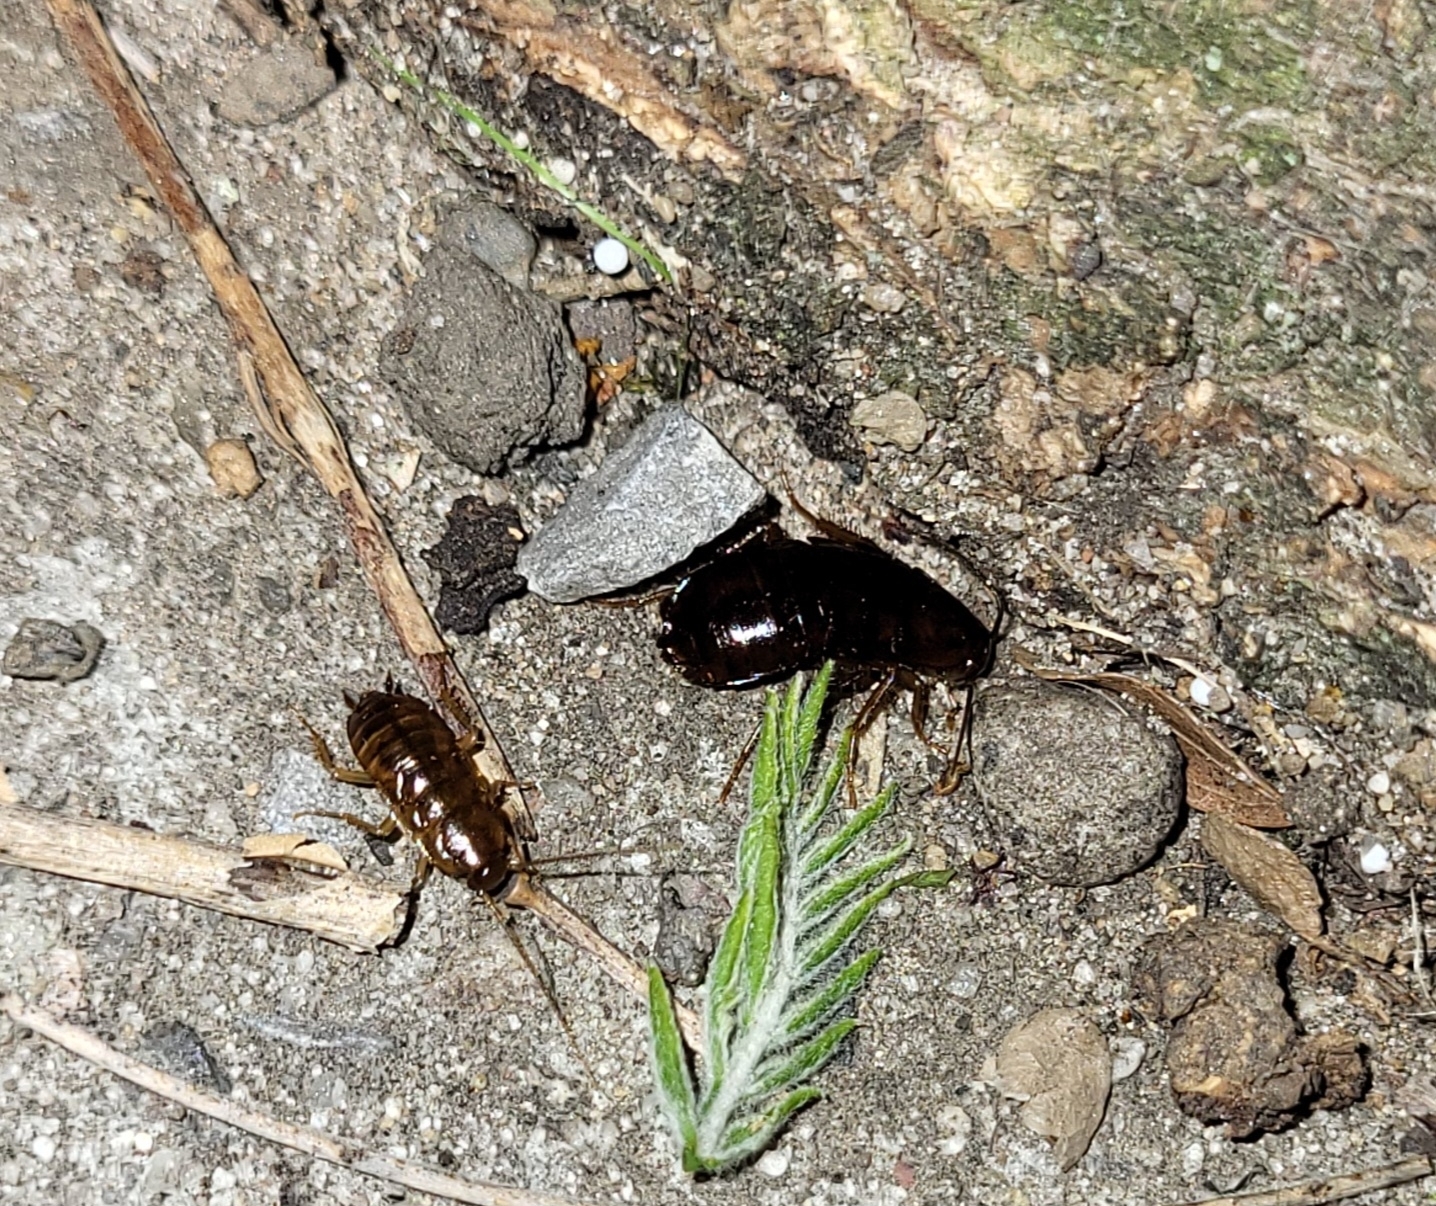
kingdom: Animalia
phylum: Arthropoda
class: Insecta
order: Blattodea
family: Blattidae
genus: Blatta
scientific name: Blatta orientalis
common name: Oriental cockroach
